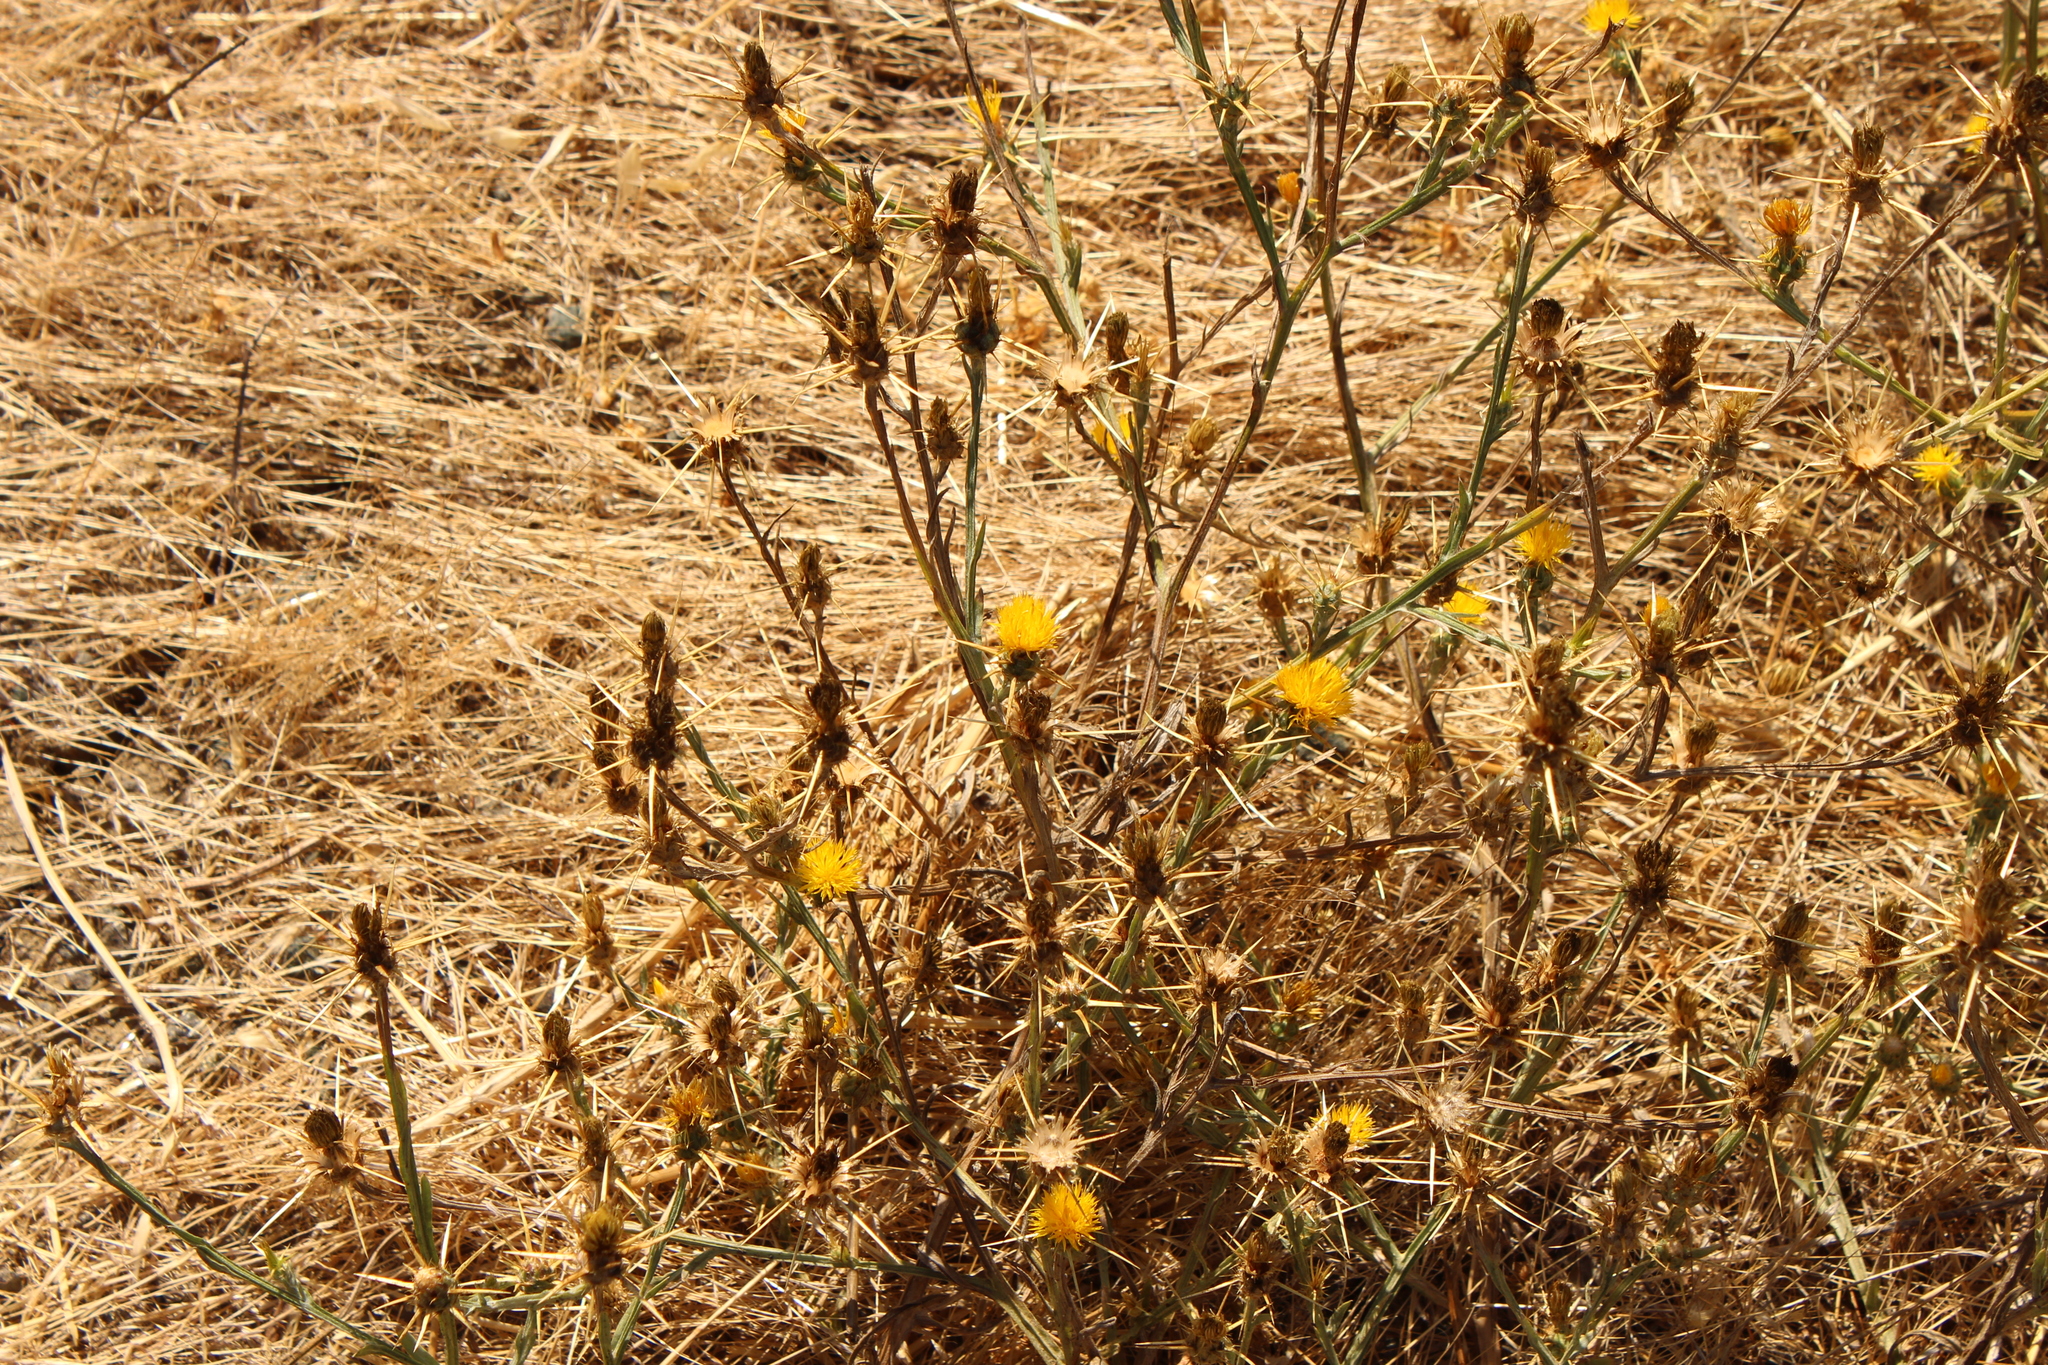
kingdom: Plantae
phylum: Tracheophyta
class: Magnoliopsida
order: Asterales
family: Asteraceae
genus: Centaurea
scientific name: Centaurea solstitialis
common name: Yellow star-thistle
